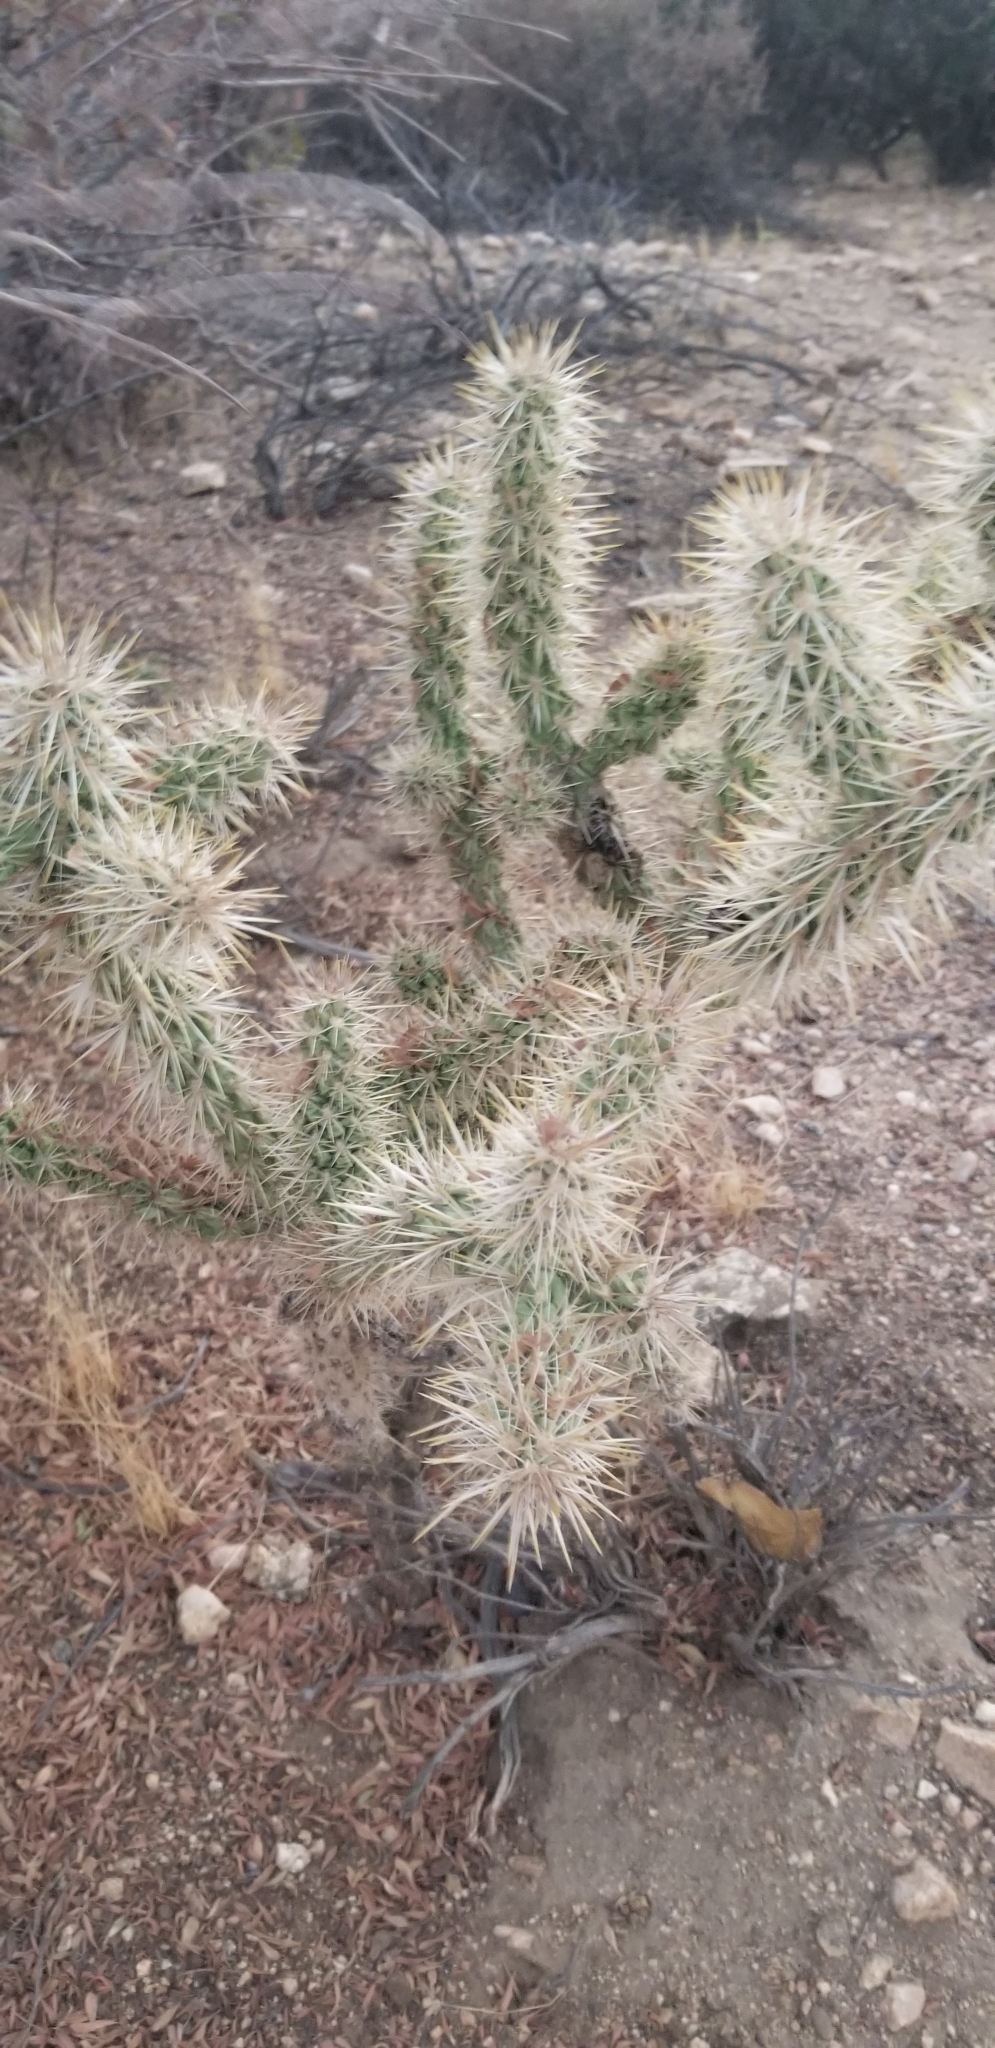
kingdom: Plantae
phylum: Tracheophyta
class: Magnoliopsida
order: Caryophyllales
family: Cactaceae
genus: Cylindropuntia
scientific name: Cylindropuntia echinocarpa
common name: Ground cholla
